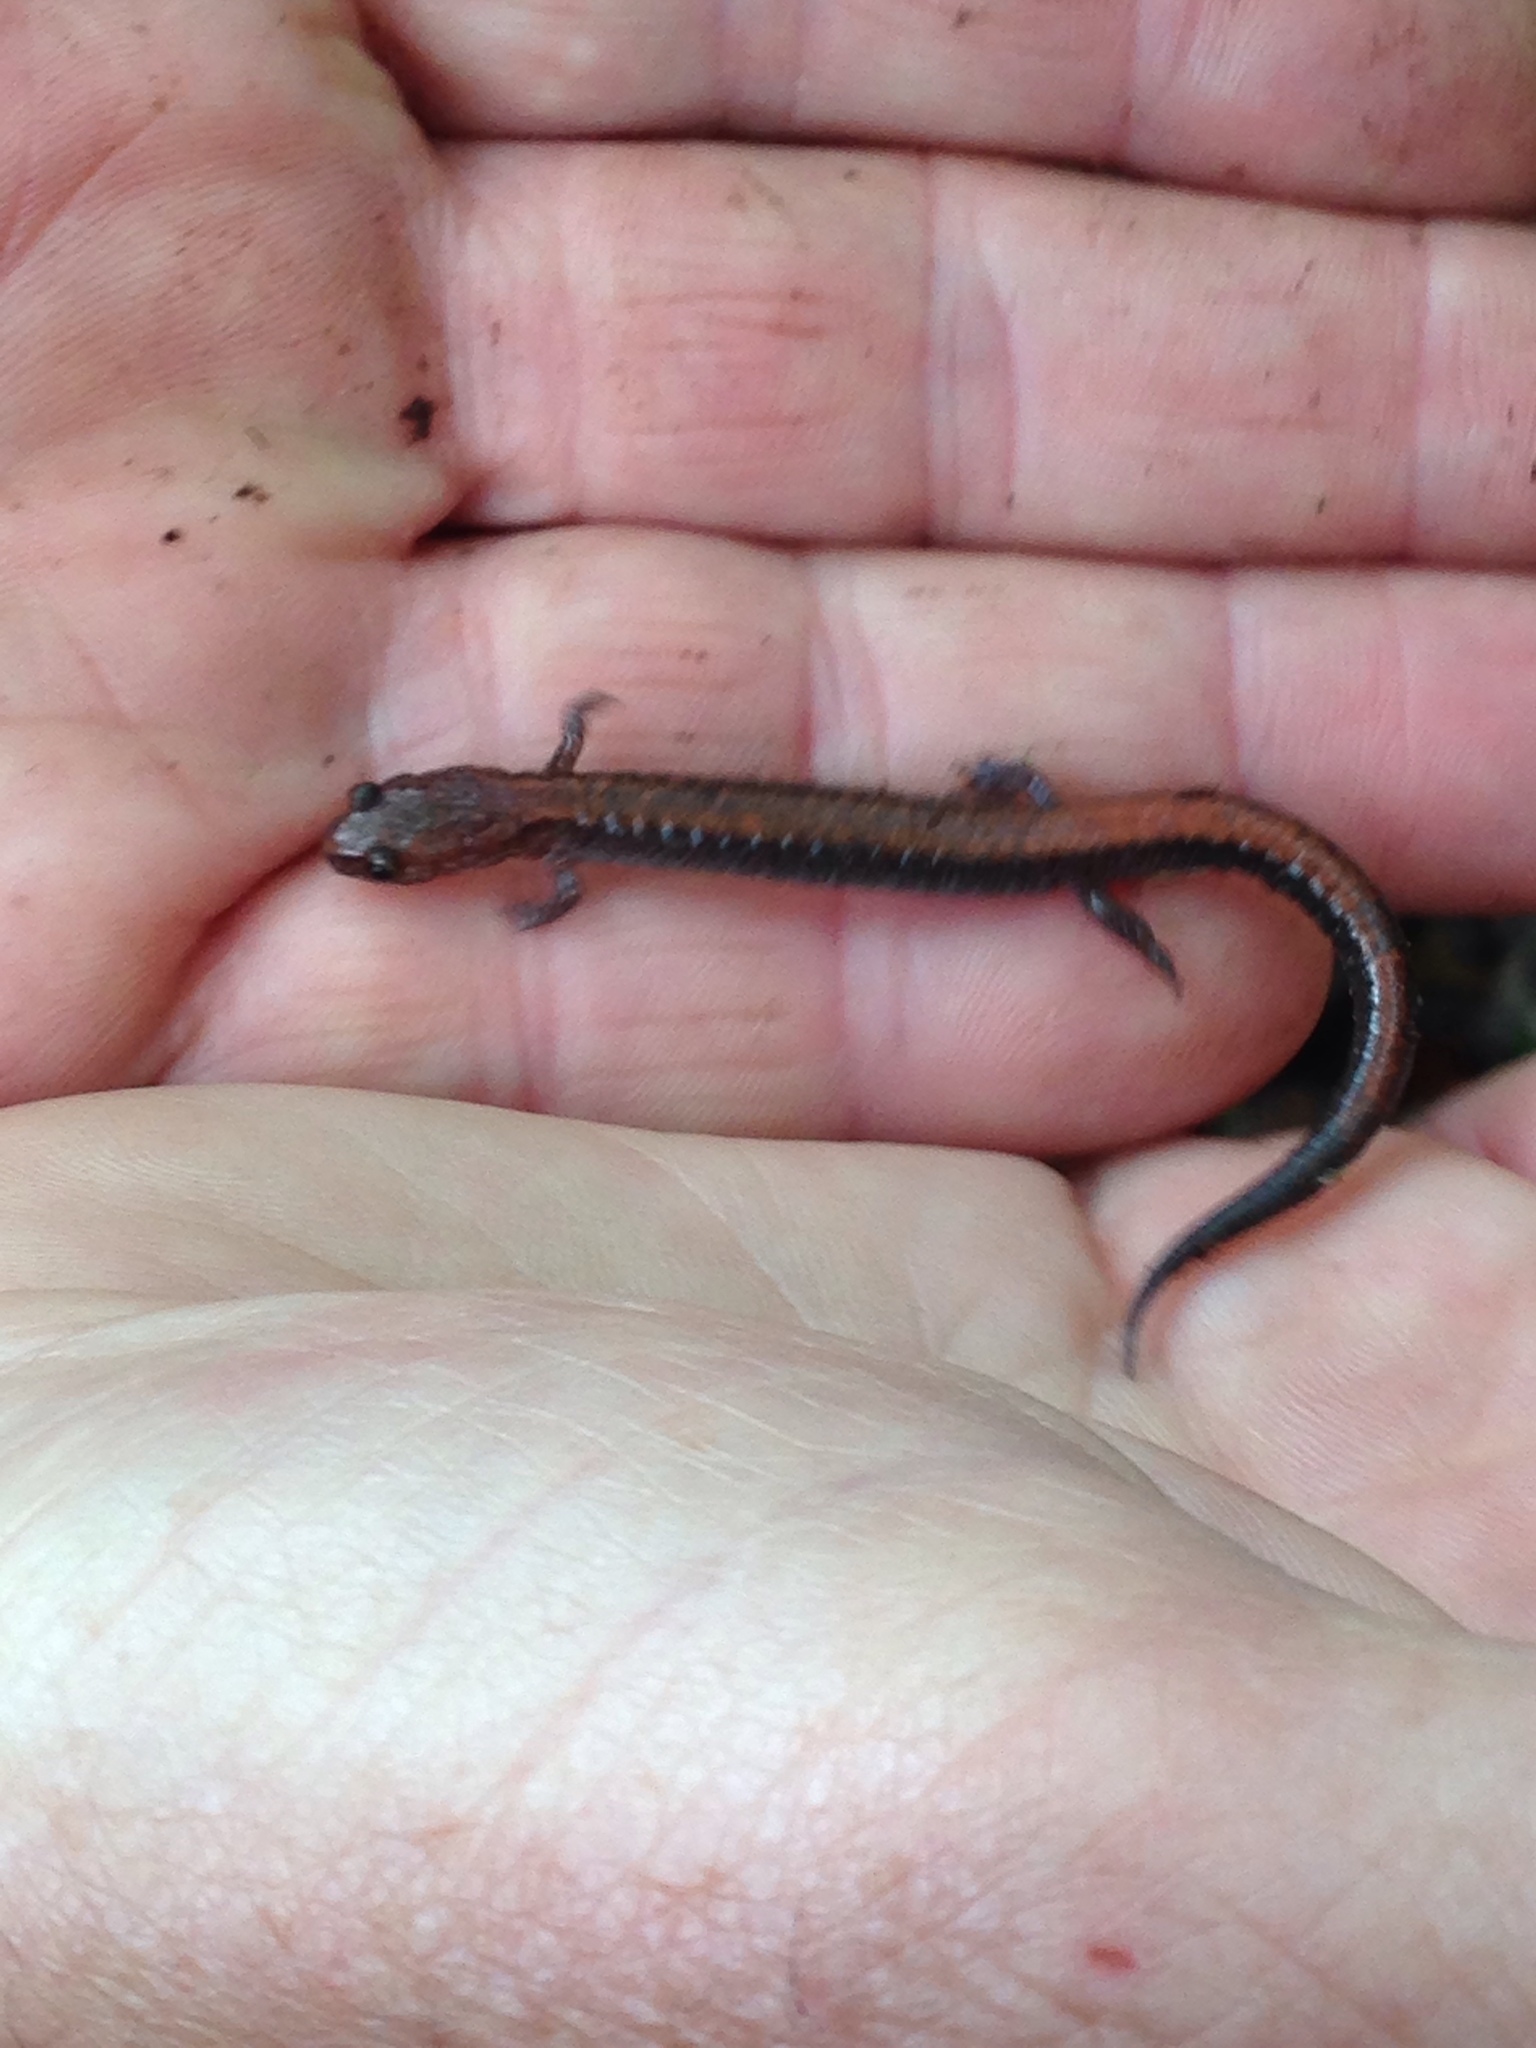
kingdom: Animalia
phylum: Chordata
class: Amphibia
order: Caudata
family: Plethodontidae
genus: Plethodon
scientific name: Plethodon cinereus
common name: Redback salamander
